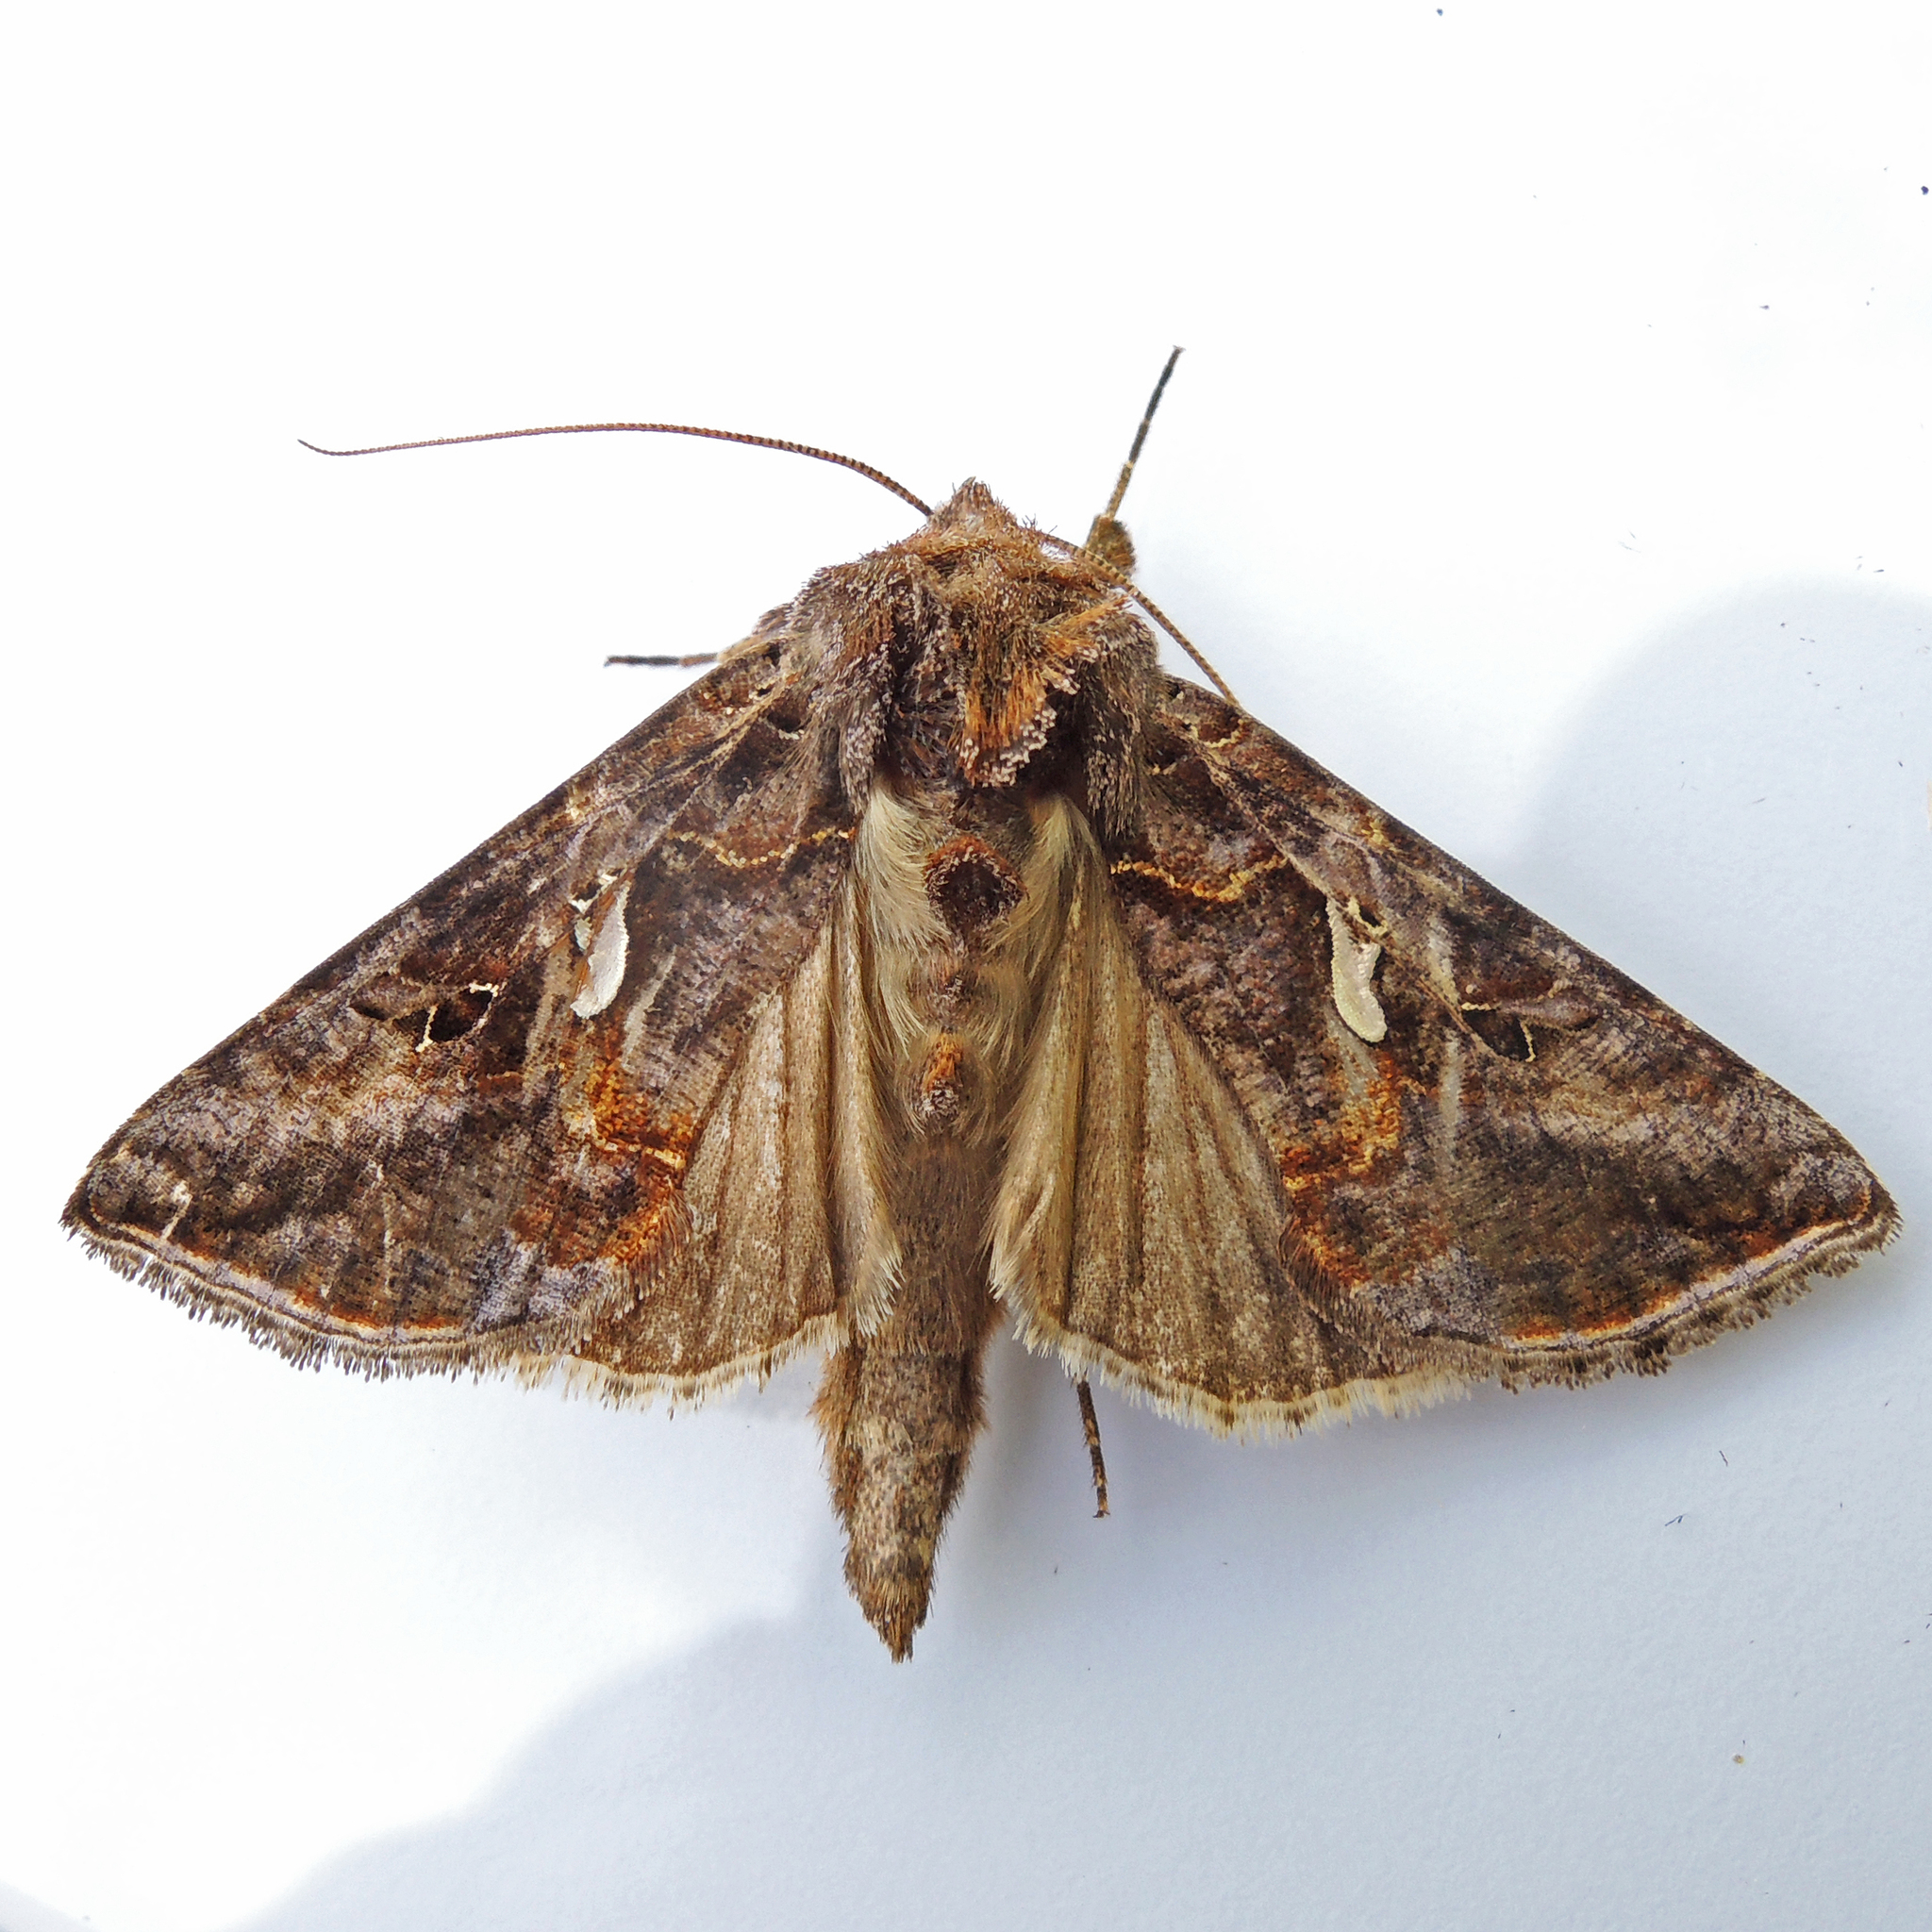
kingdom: Animalia
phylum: Arthropoda
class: Insecta
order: Lepidoptera
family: Noctuidae
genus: Autographa
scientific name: Autographa precationis
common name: Common looper moth
